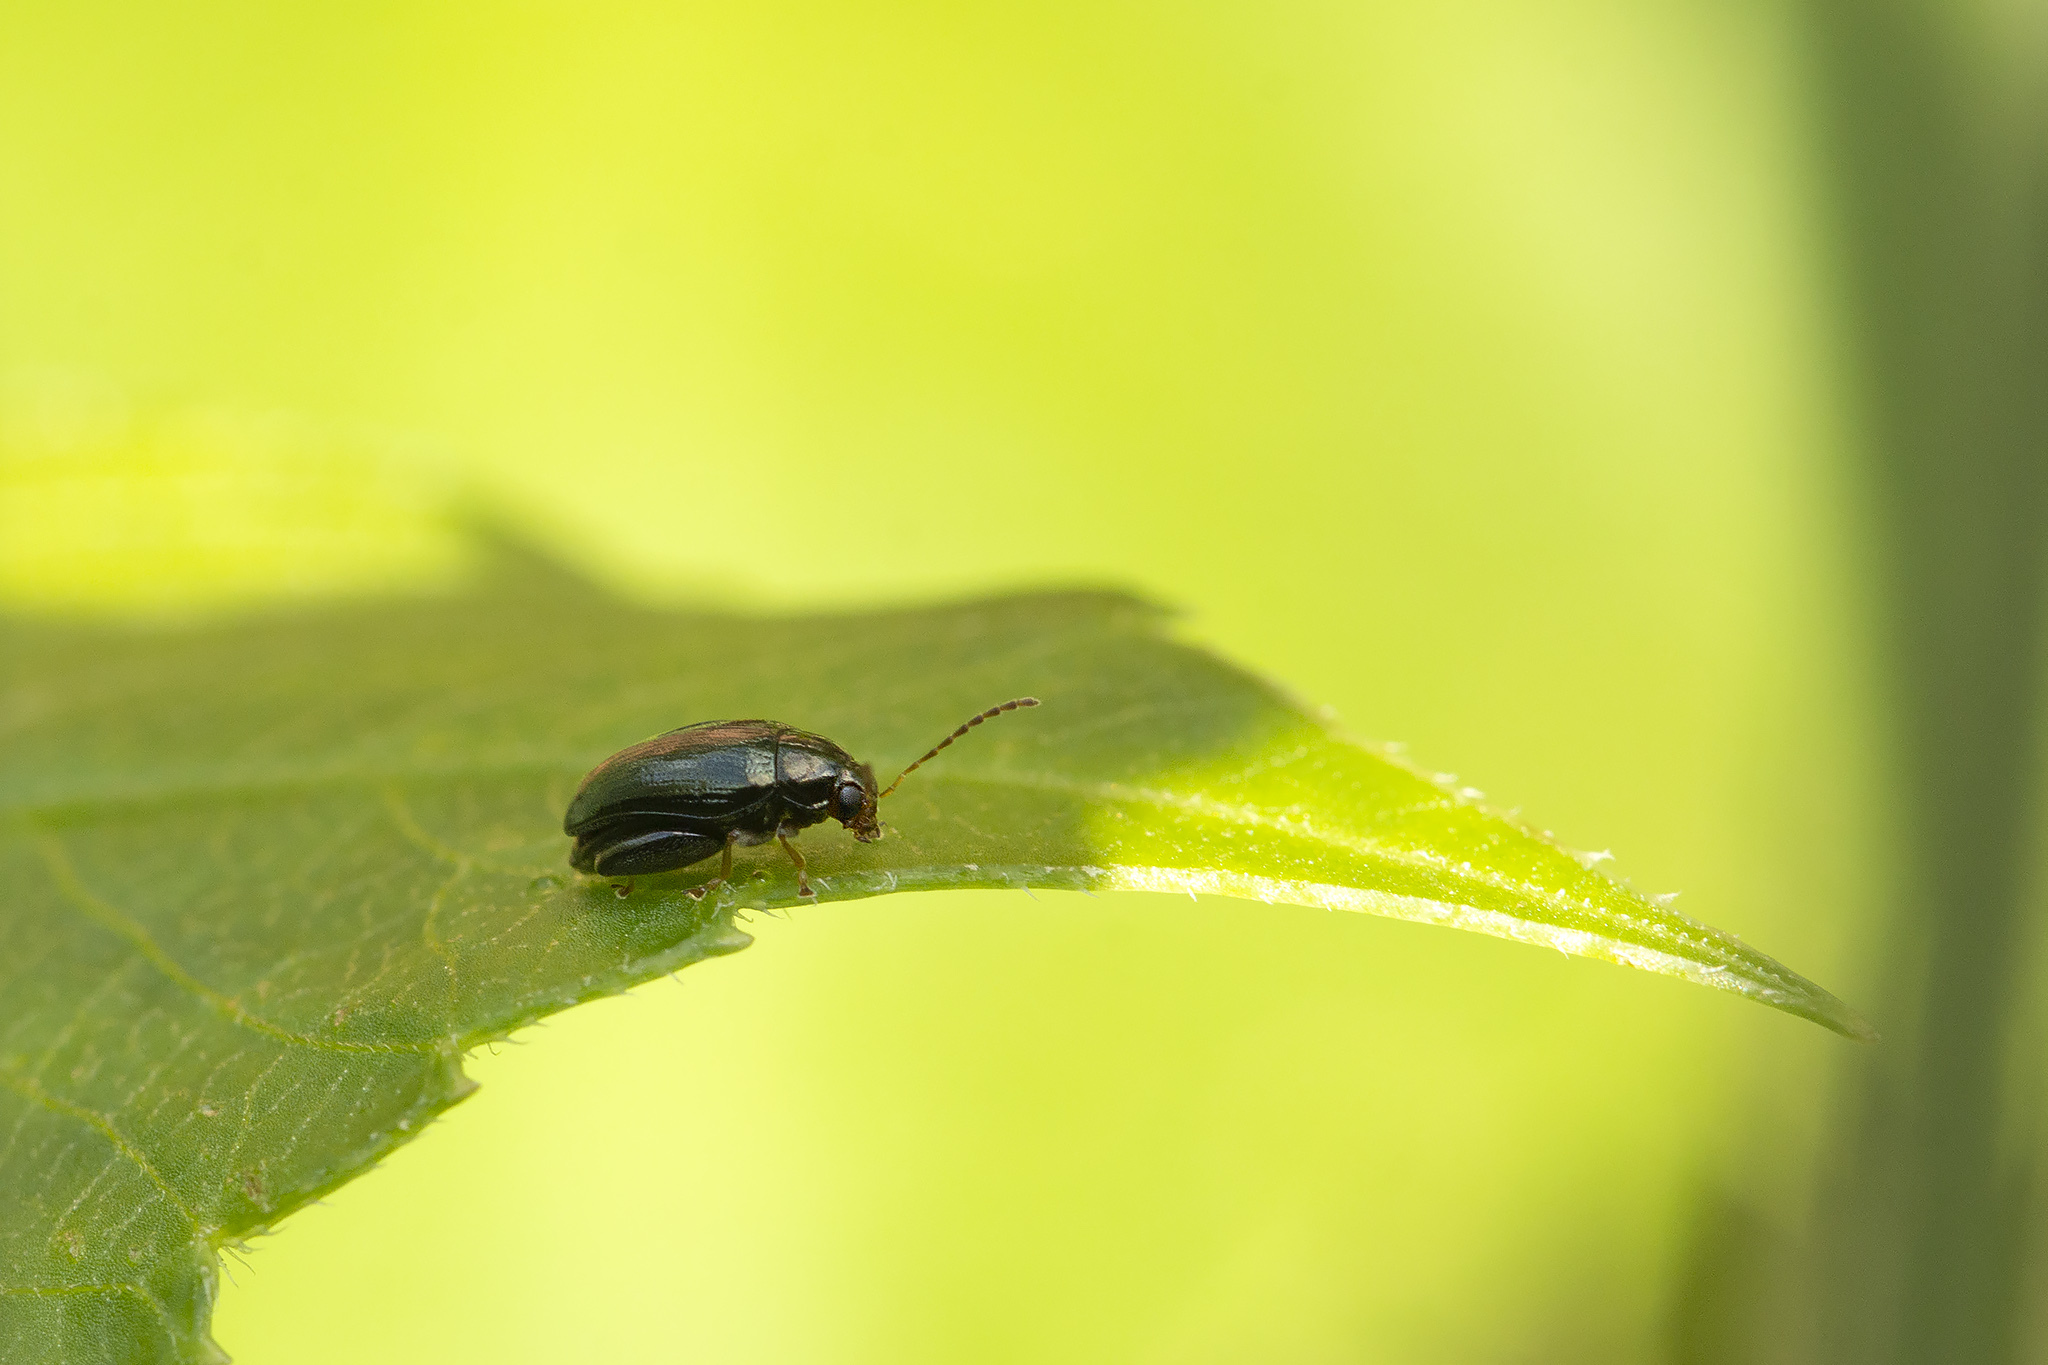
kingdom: Animalia
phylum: Arthropoda
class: Insecta
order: Coleoptera
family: Chrysomelidae
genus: Psylliodes
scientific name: Psylliodes chrysocephalus
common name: Cabbage-stem flea beetle
